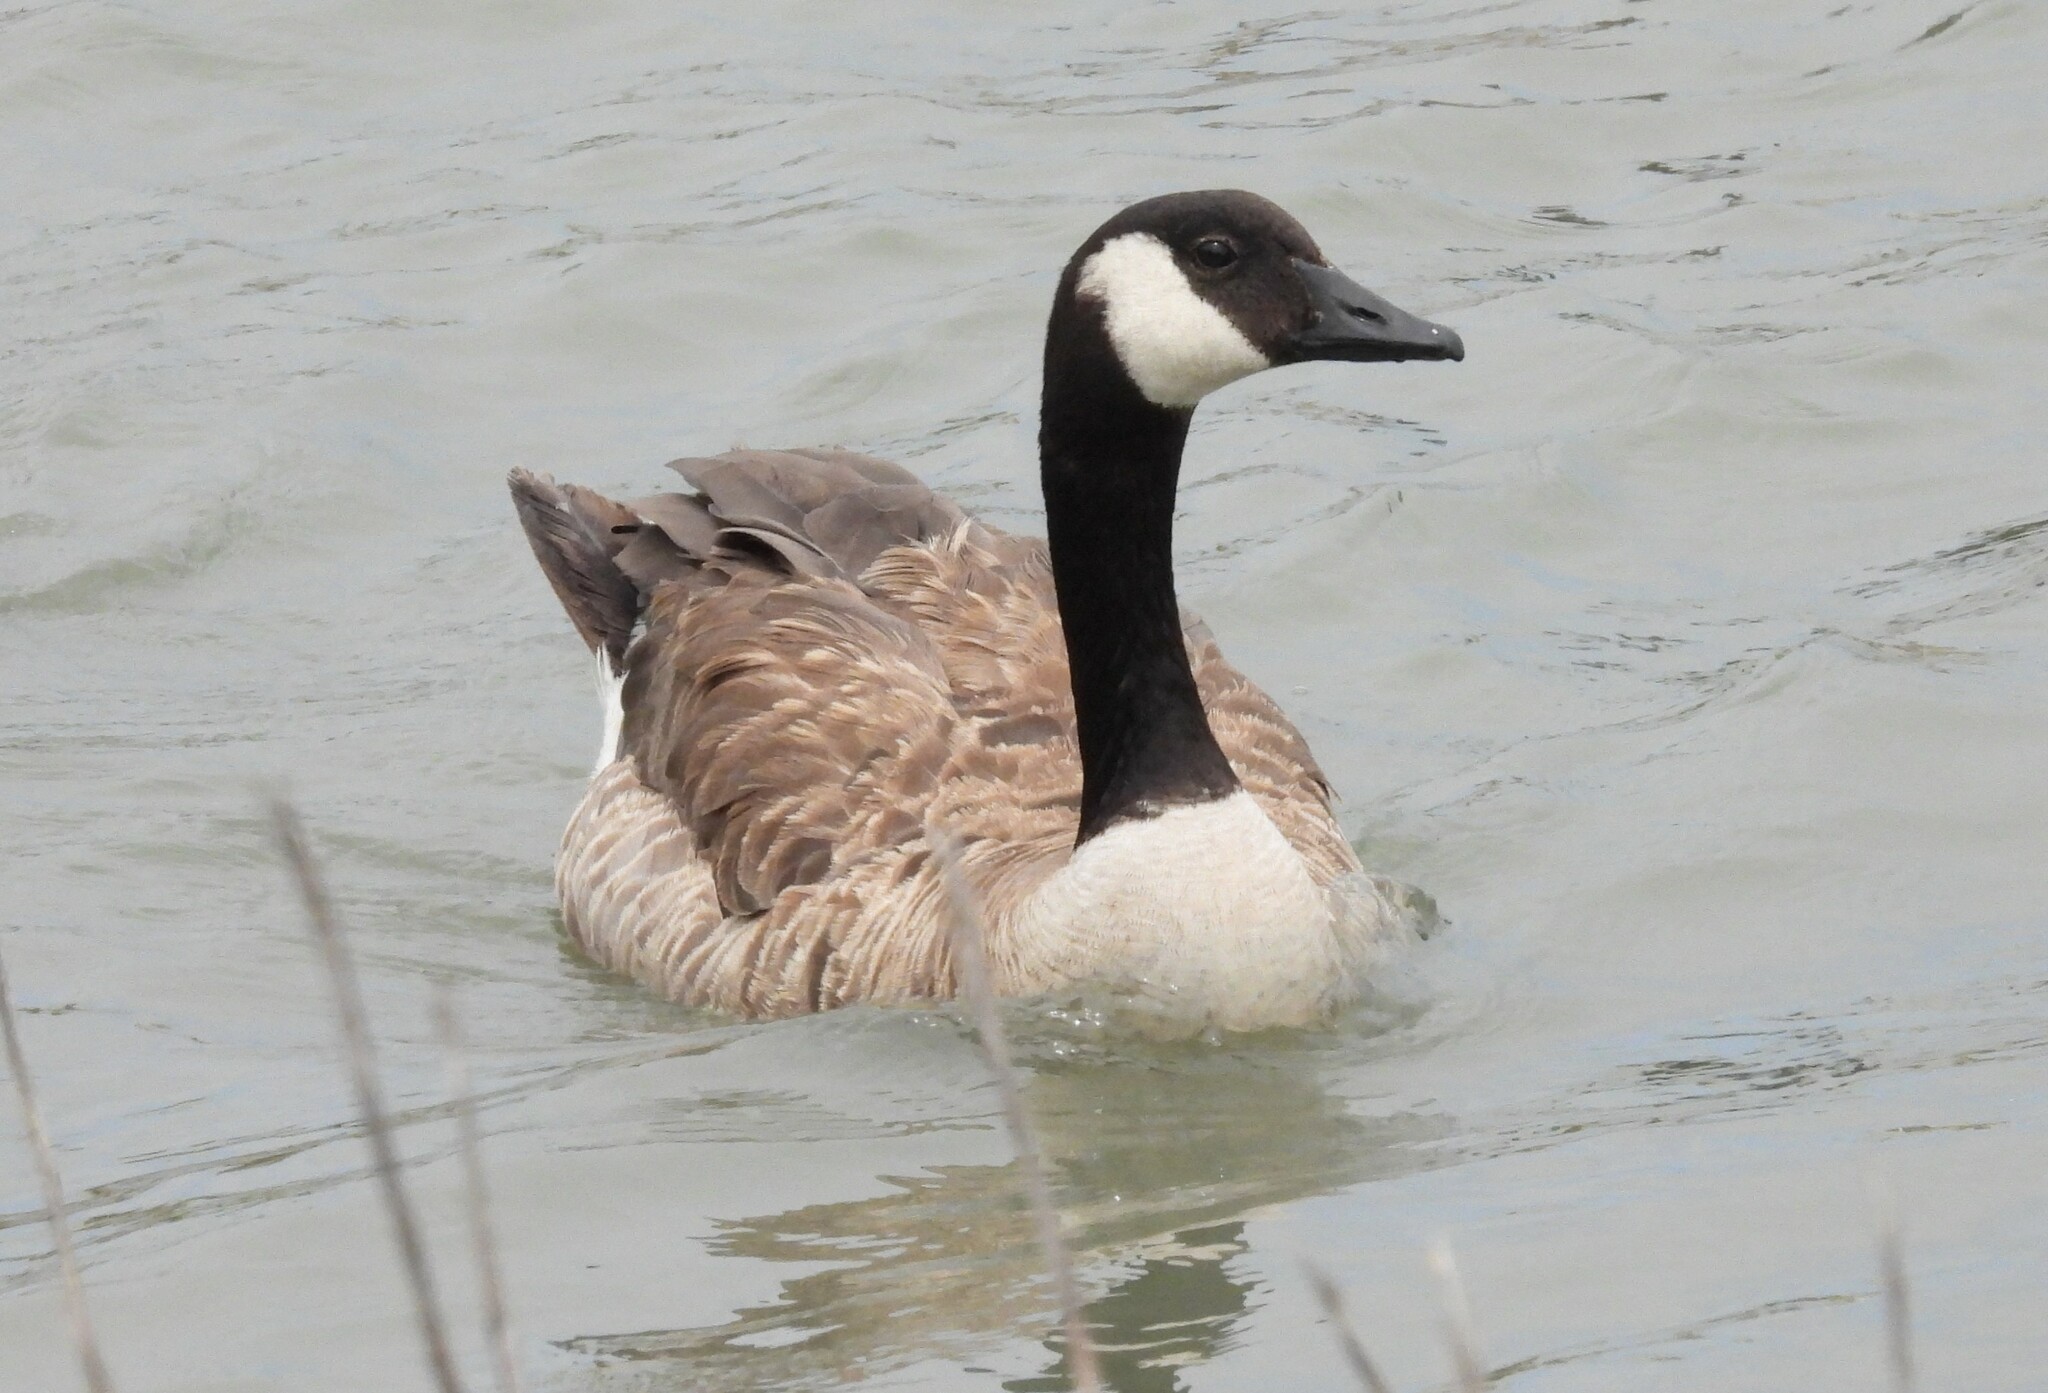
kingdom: Animalia
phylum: Chordata
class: Aves
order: Anseriformes
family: Anatidae
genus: Branta
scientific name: Branta canadensis
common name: Canada goose
